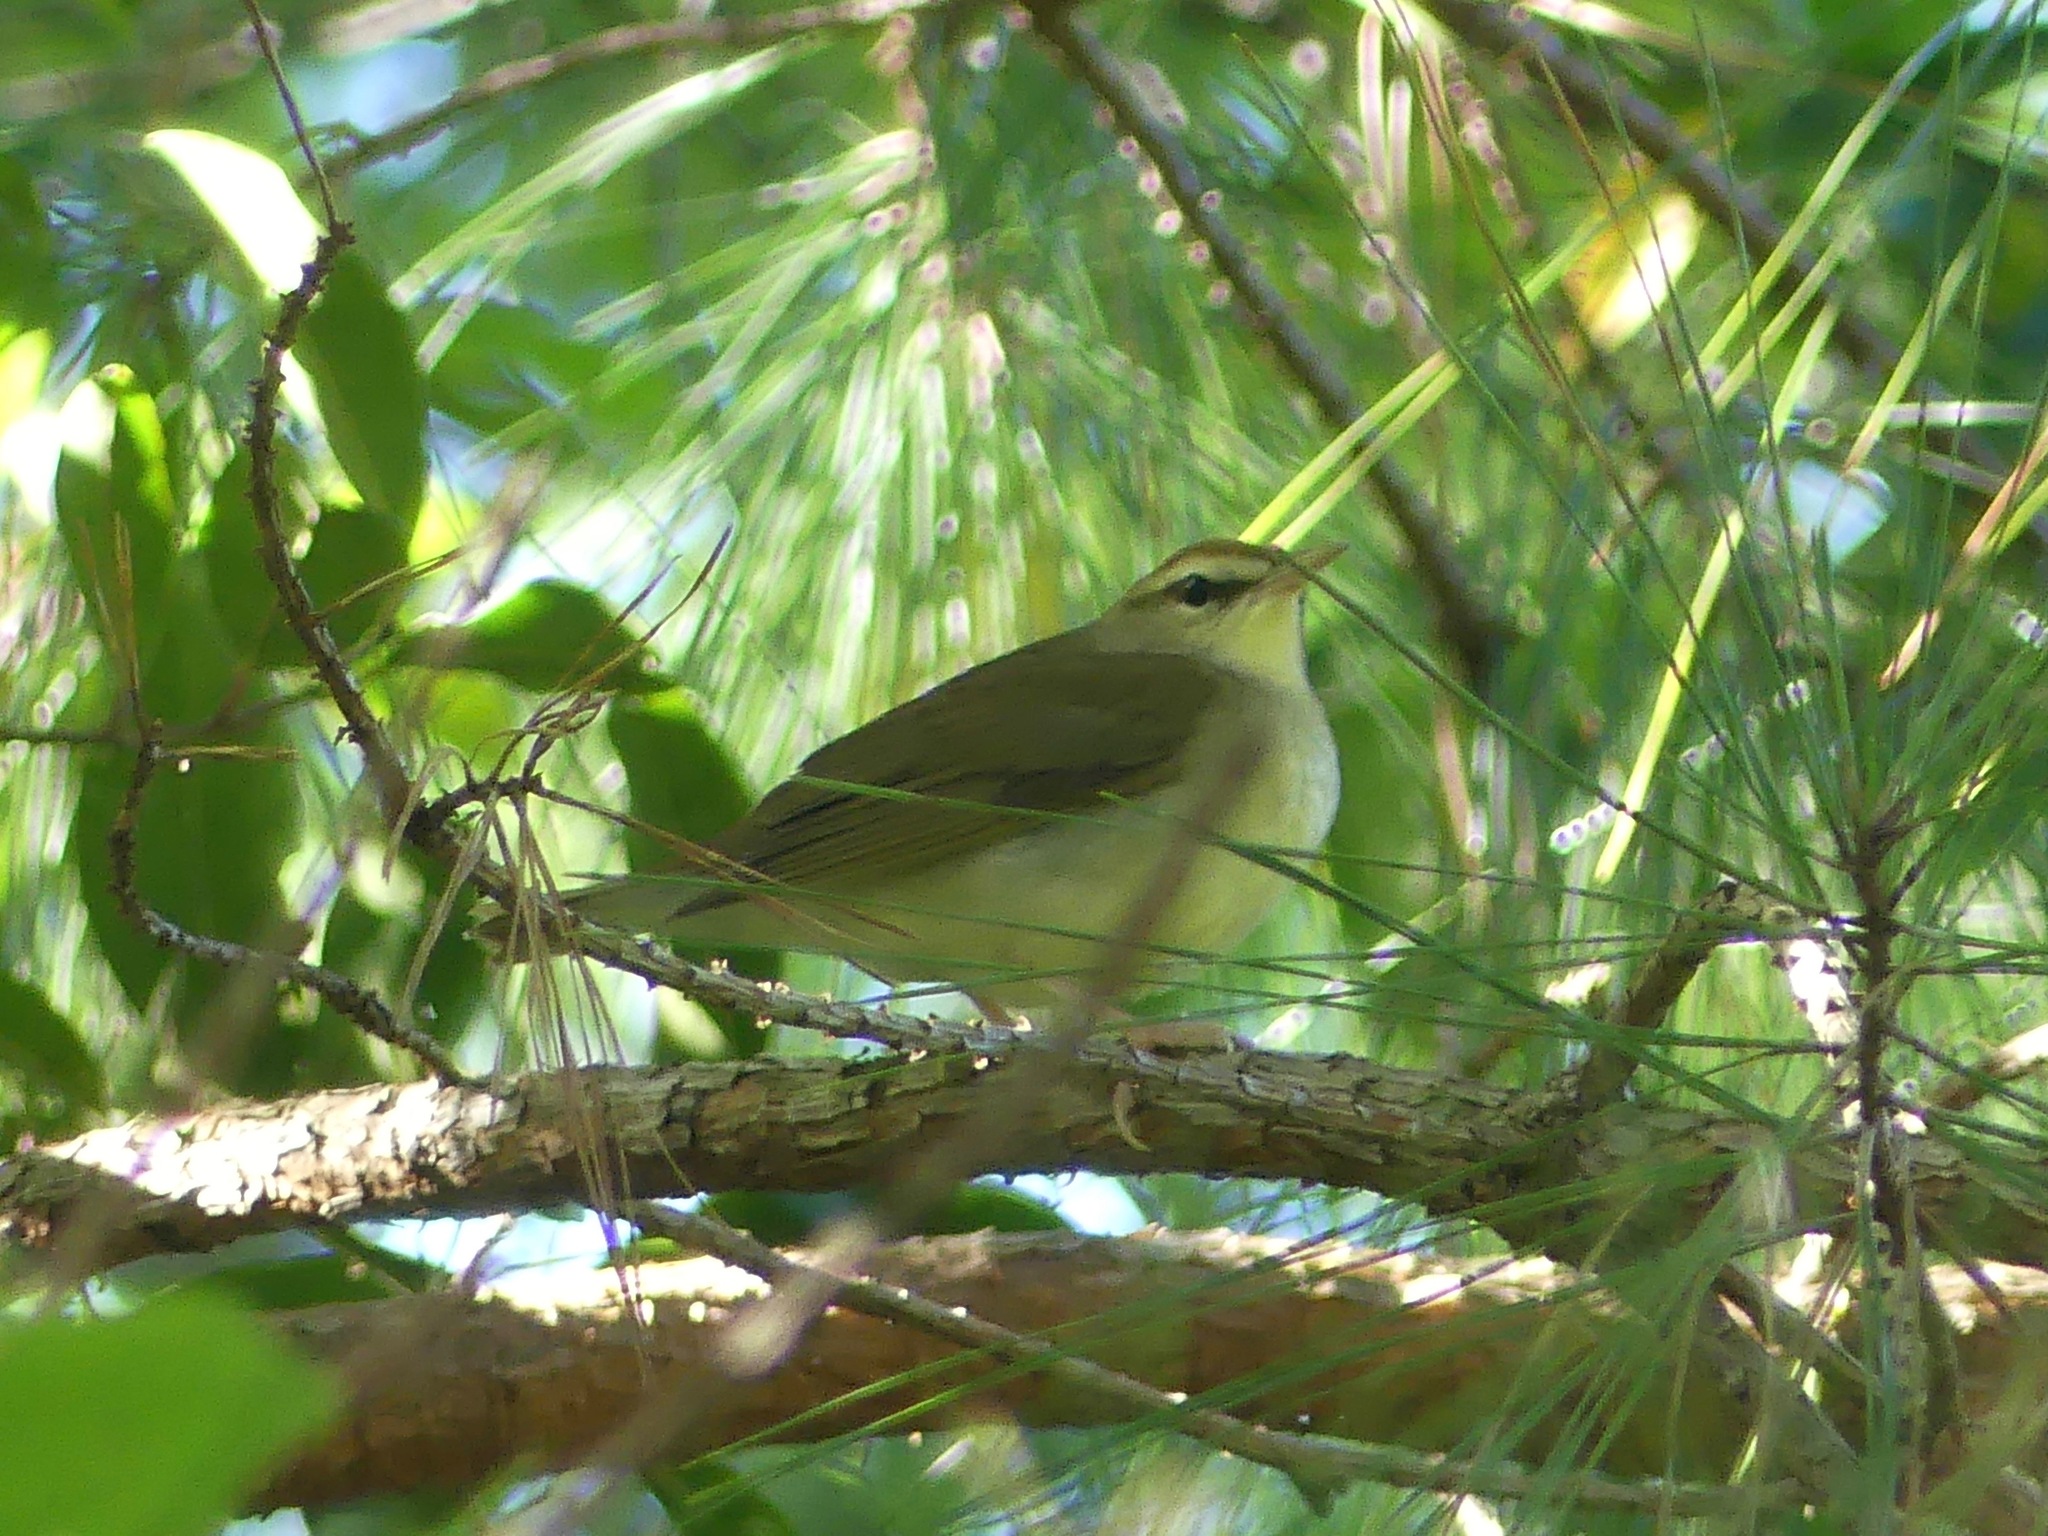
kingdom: Animalia
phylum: Chordata
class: Aves
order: Passeriformes
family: Parulidae
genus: Limnothlypis
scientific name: Limnothlypis swainsonii
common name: Swainson's warbler
